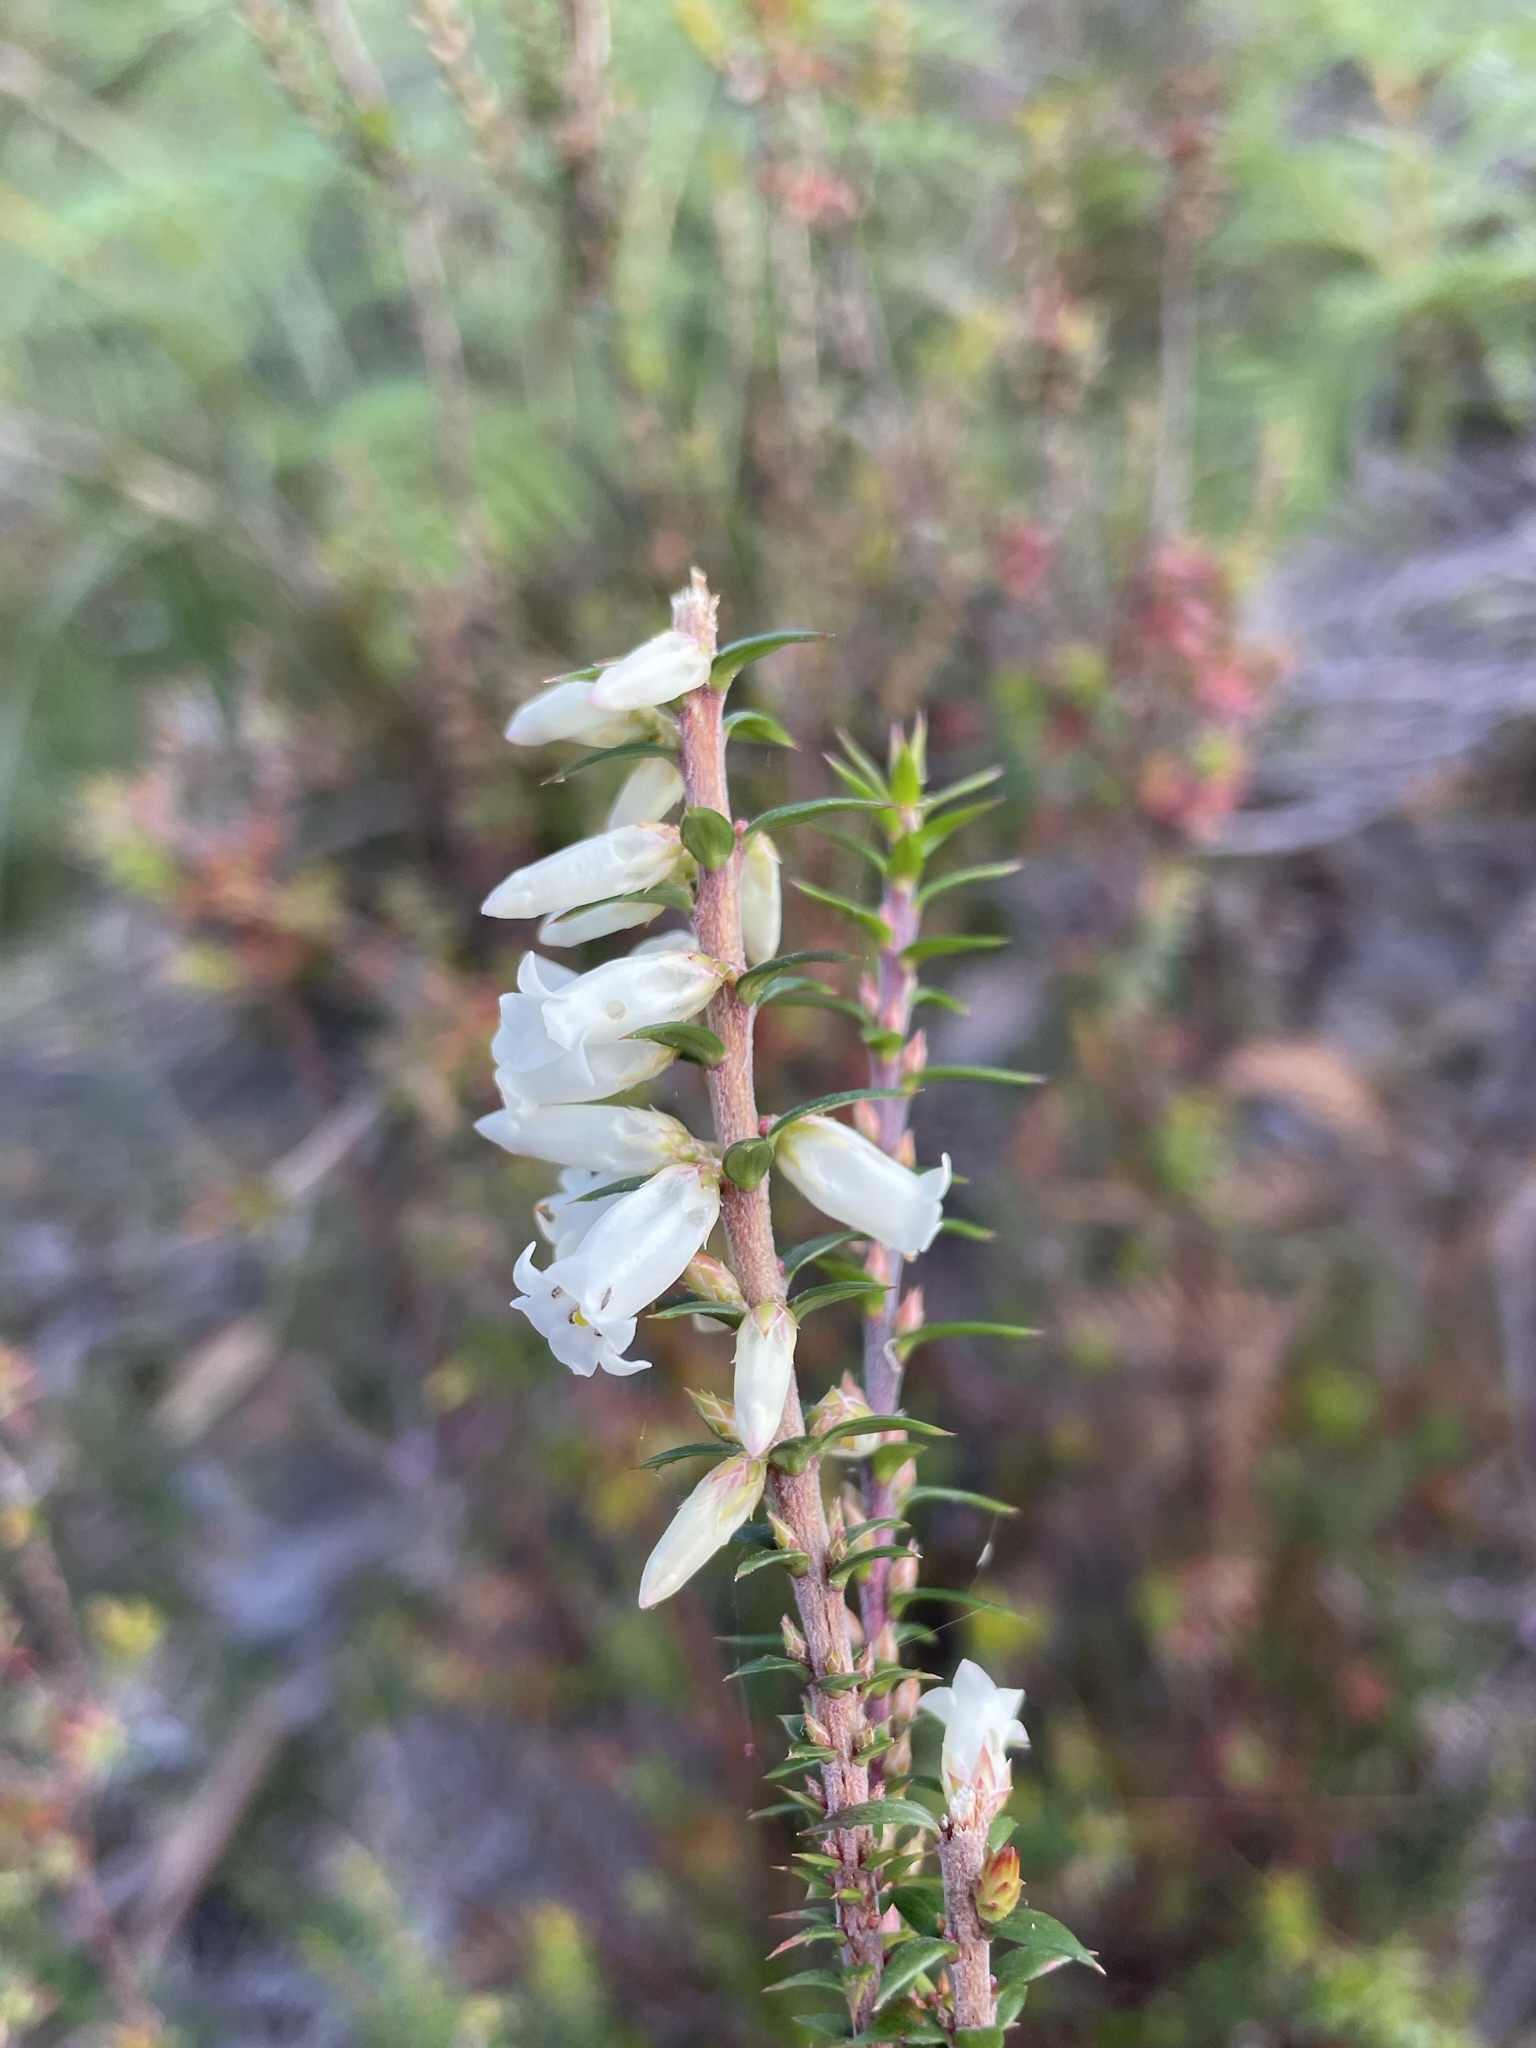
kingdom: Plantae
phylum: Tracheophyta
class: Magnoliopsida
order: Ericales
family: Ericaceae
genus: Epacris
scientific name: Epacris impressa
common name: Common-heath
